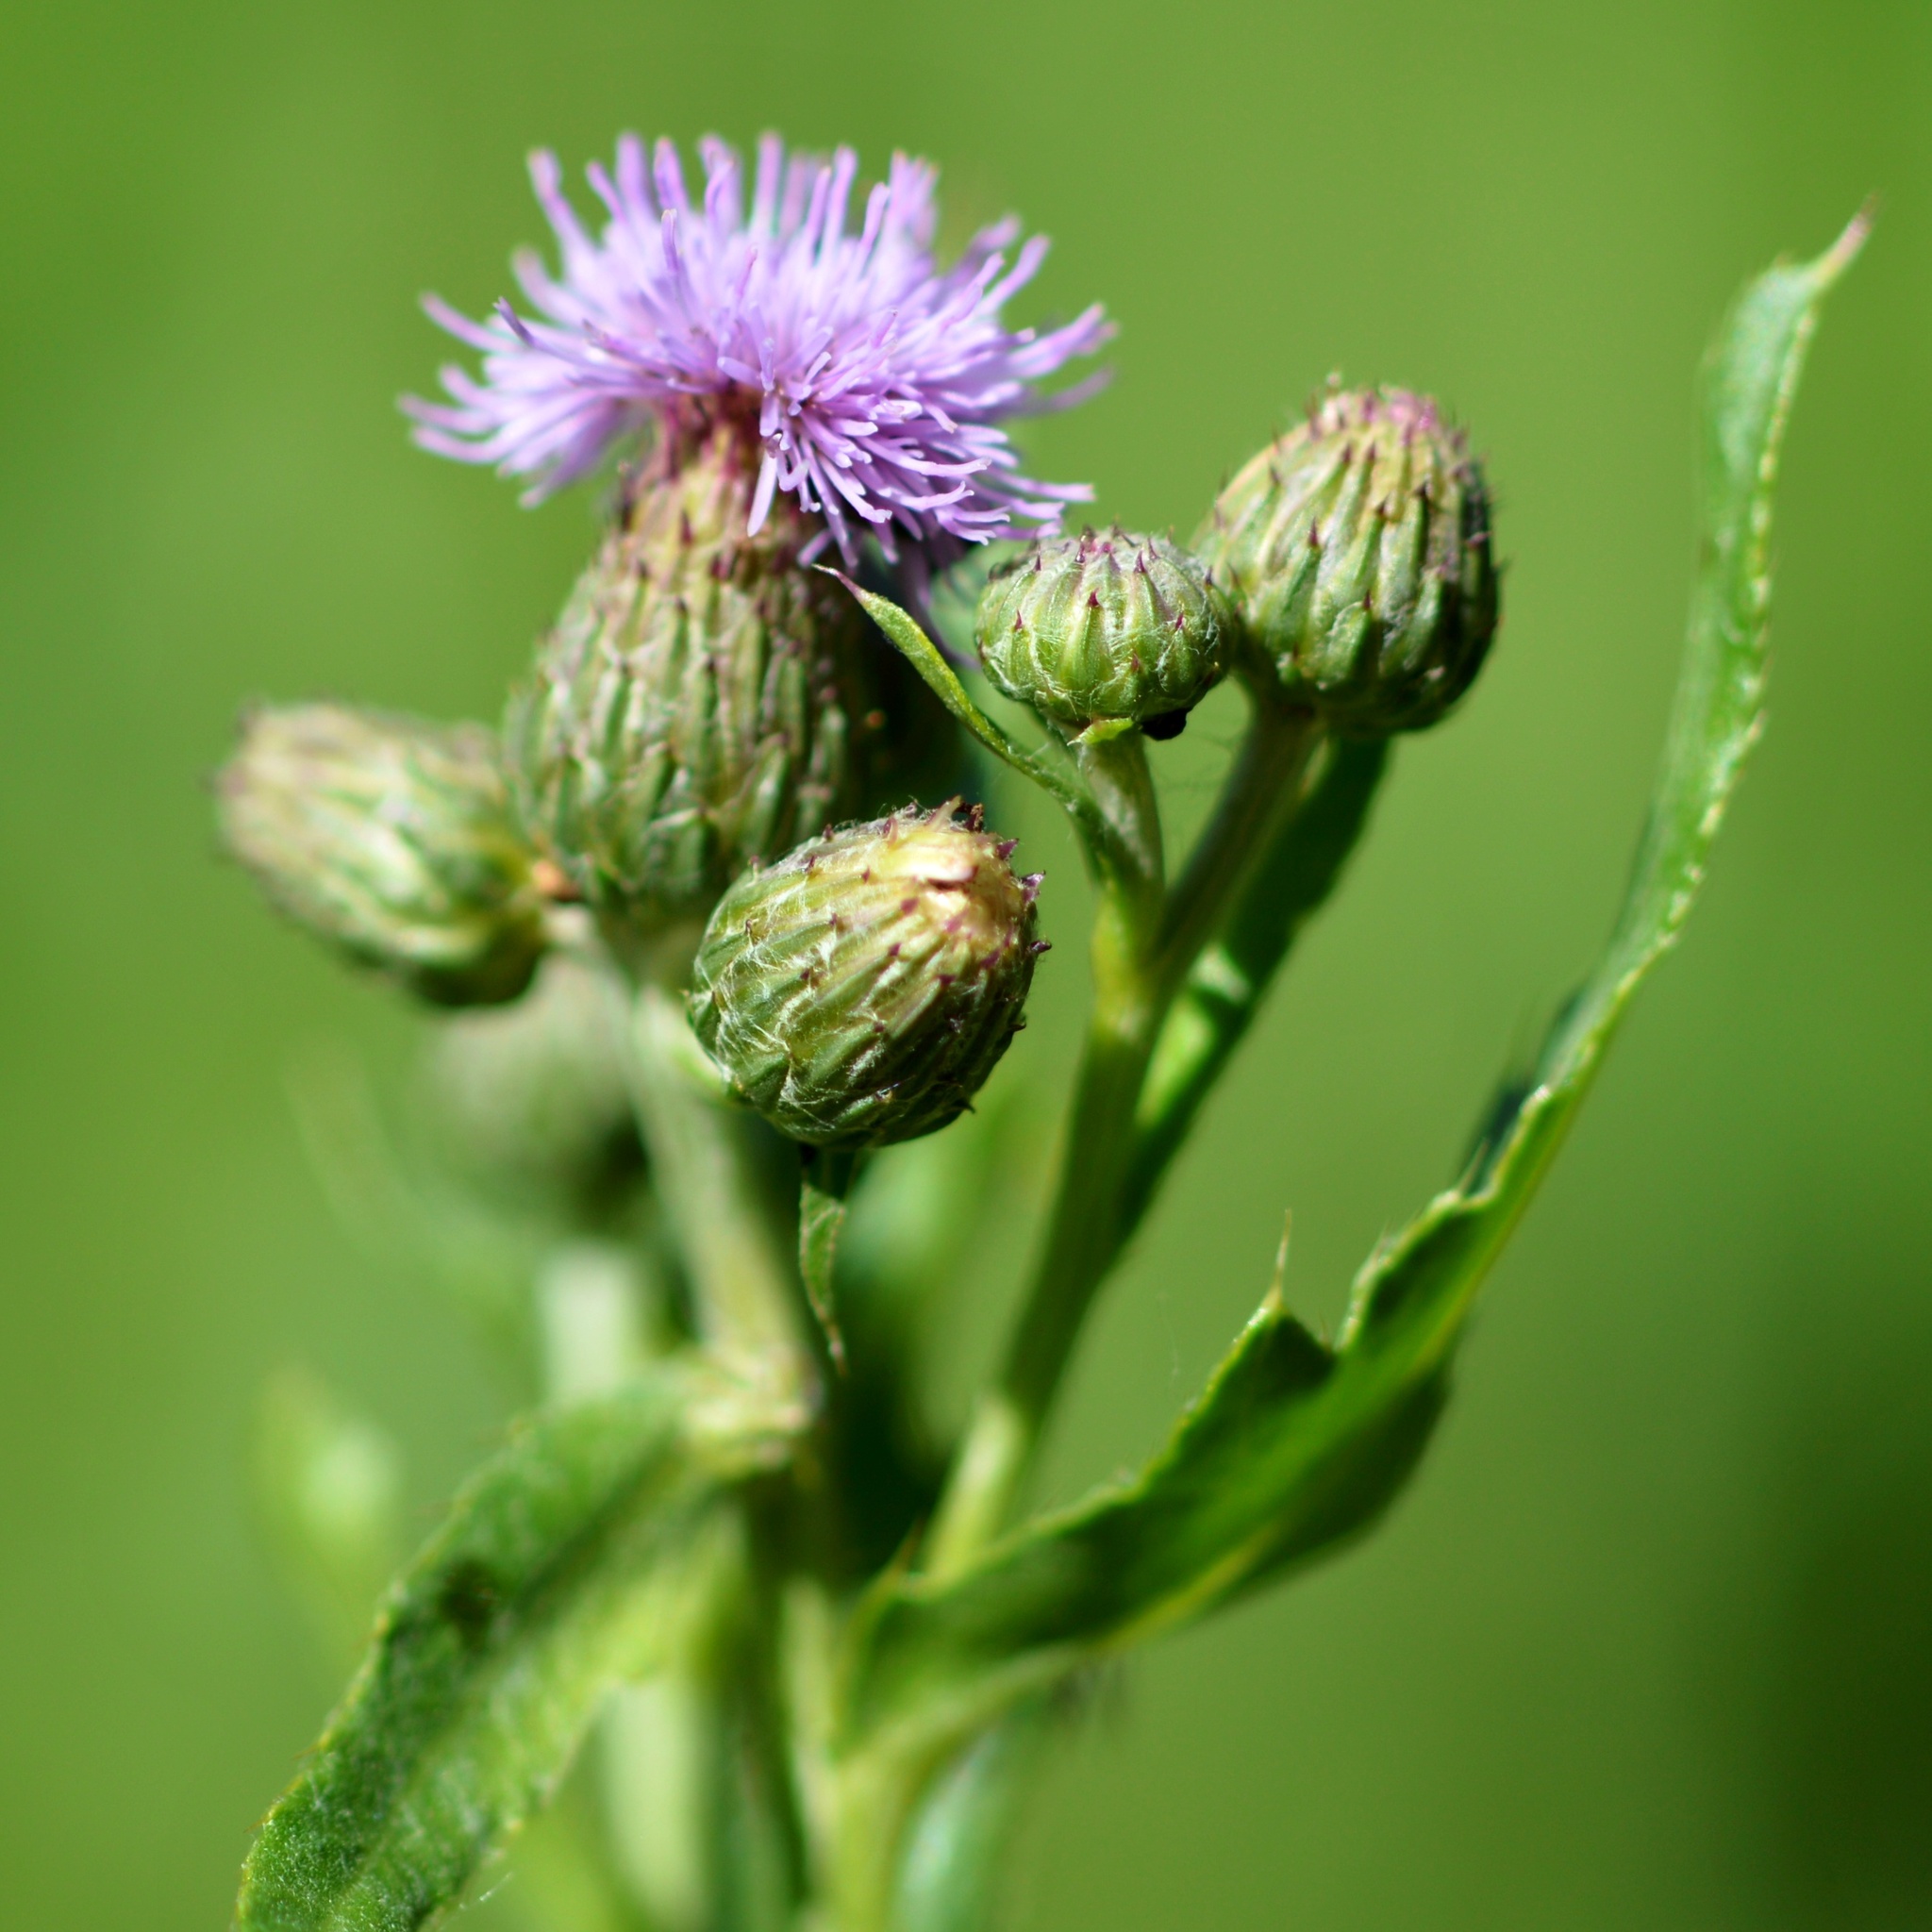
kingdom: Plantae
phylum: Tracheophyta
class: Magnoliopsida
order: Asterales
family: Asteraceae
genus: Cirsium
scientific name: Cirsium arvense
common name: Creeping thistle
